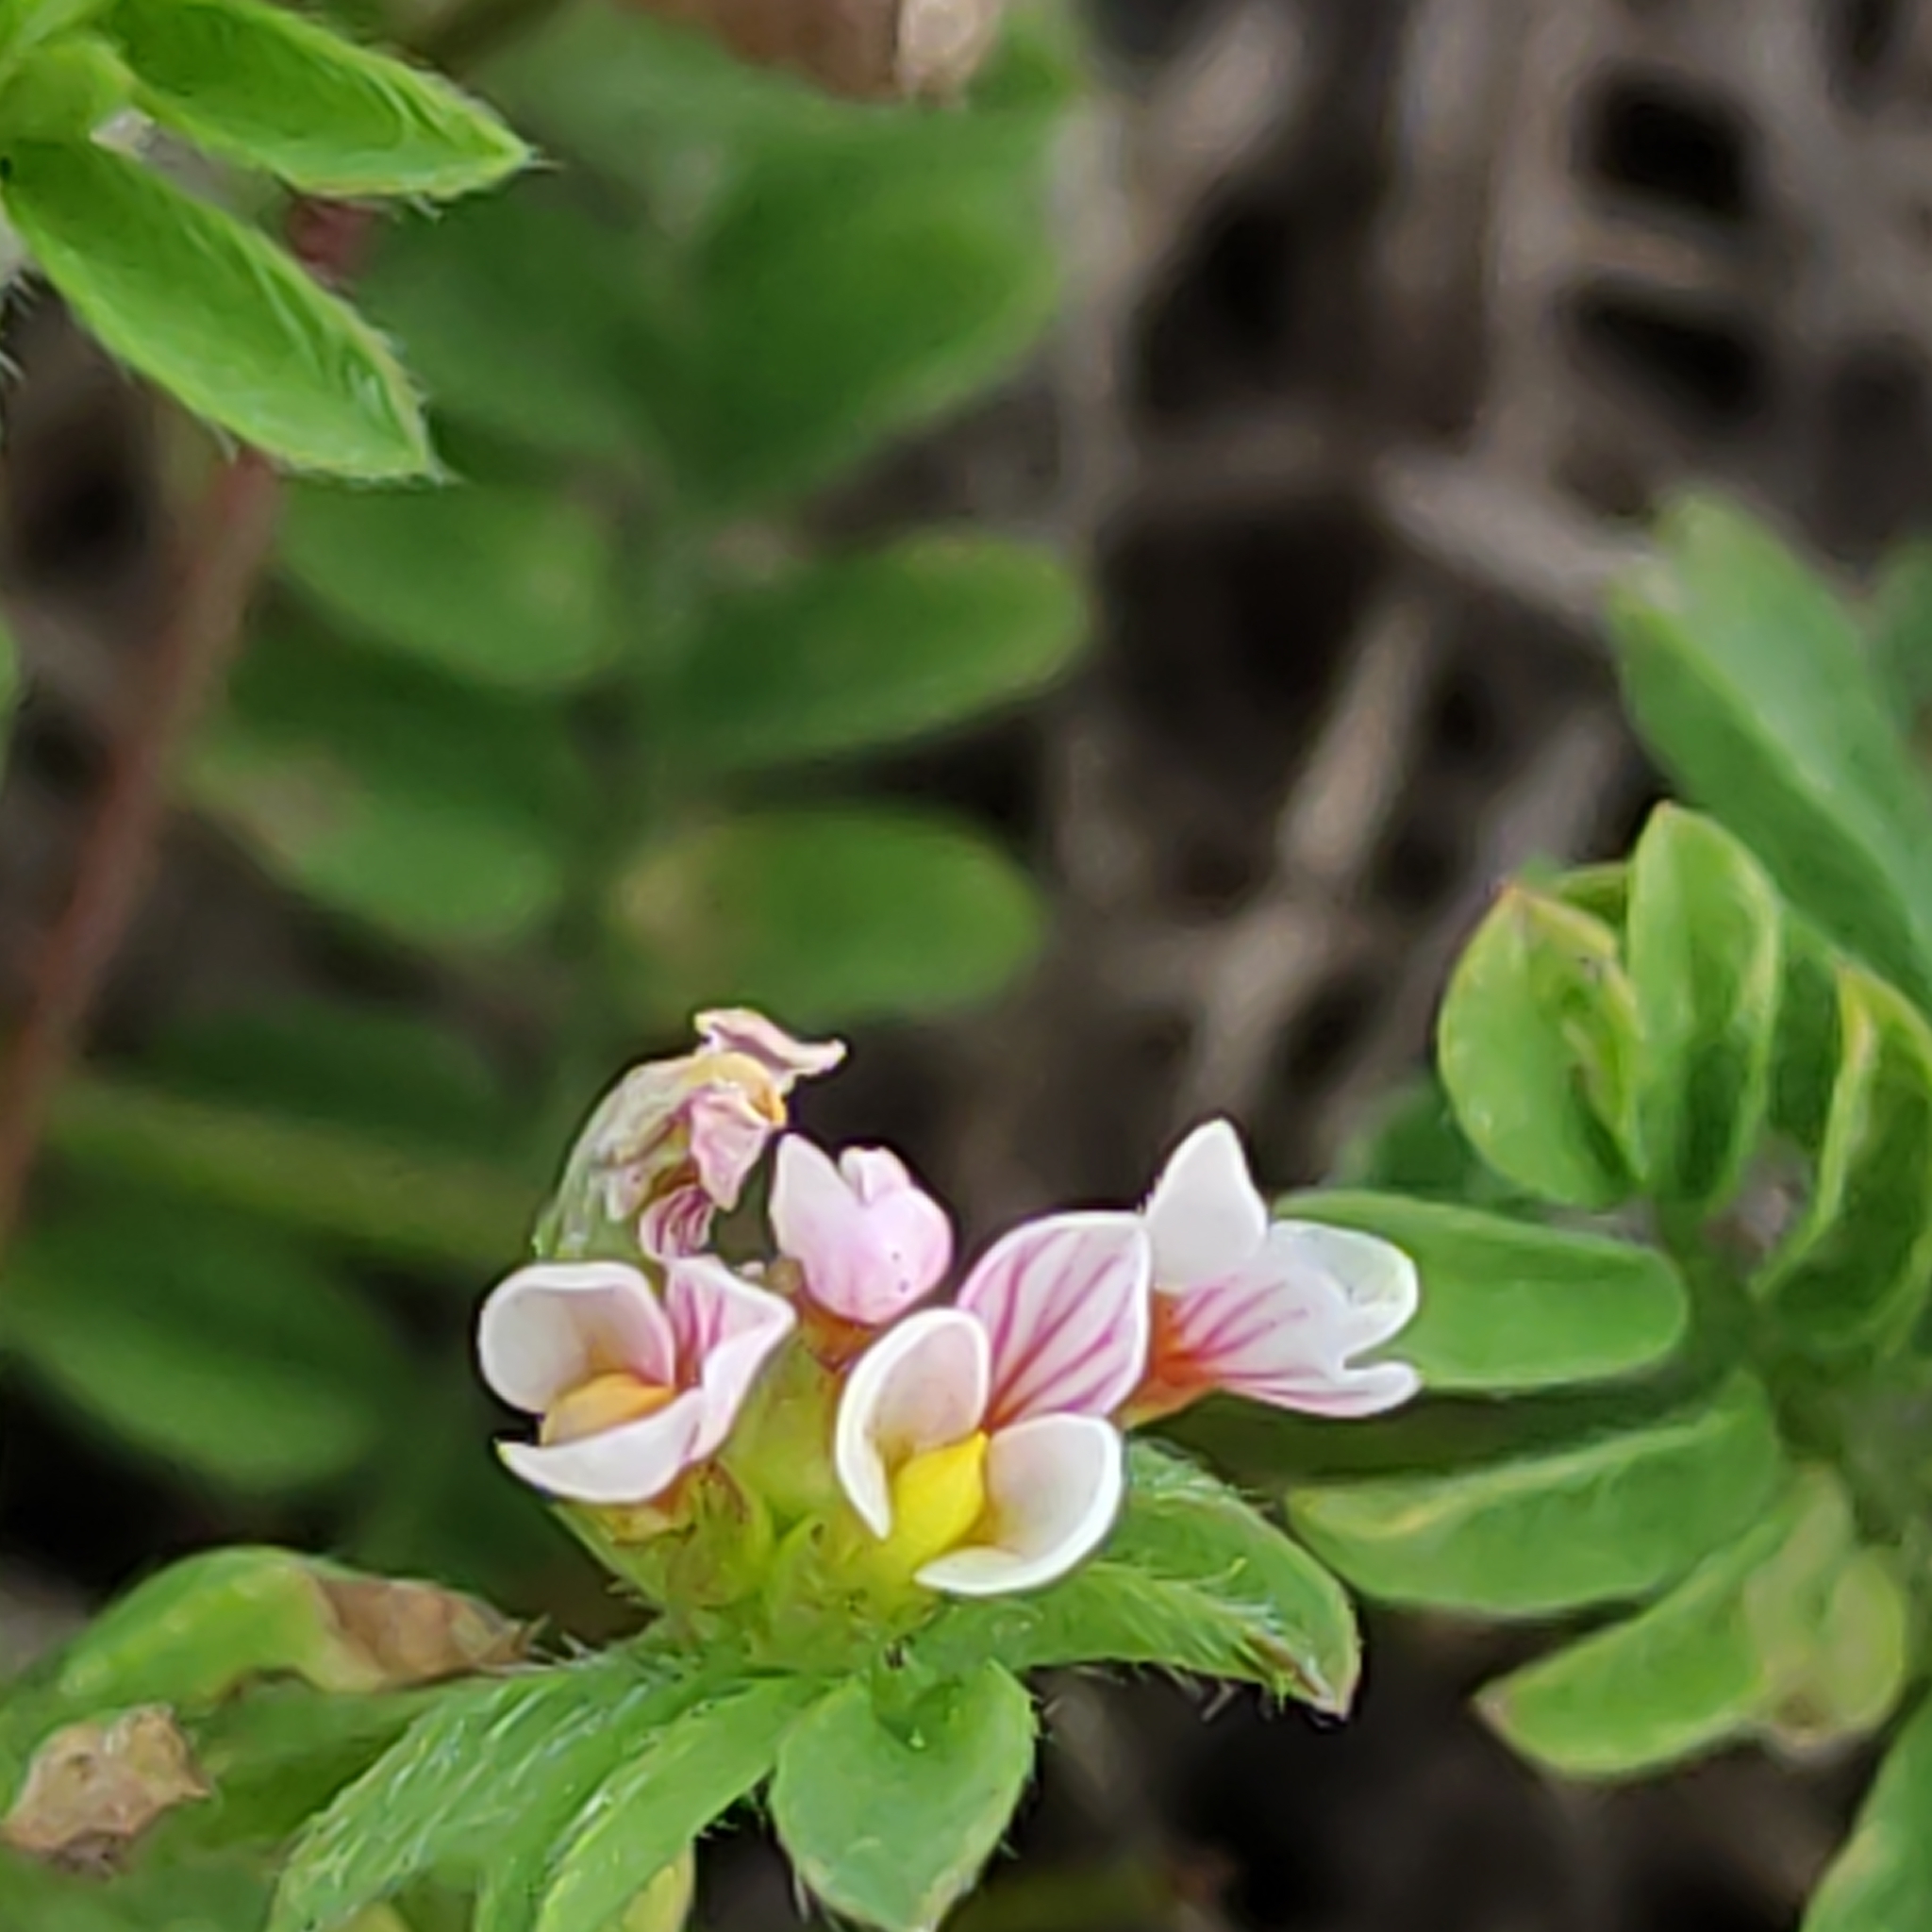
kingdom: Plantae
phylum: Tracheophyta
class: Magnoliopsida
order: Fabales
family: Fabaceae
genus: Ornithopus
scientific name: Ornithopus perpusillus
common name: Bird's-foot
